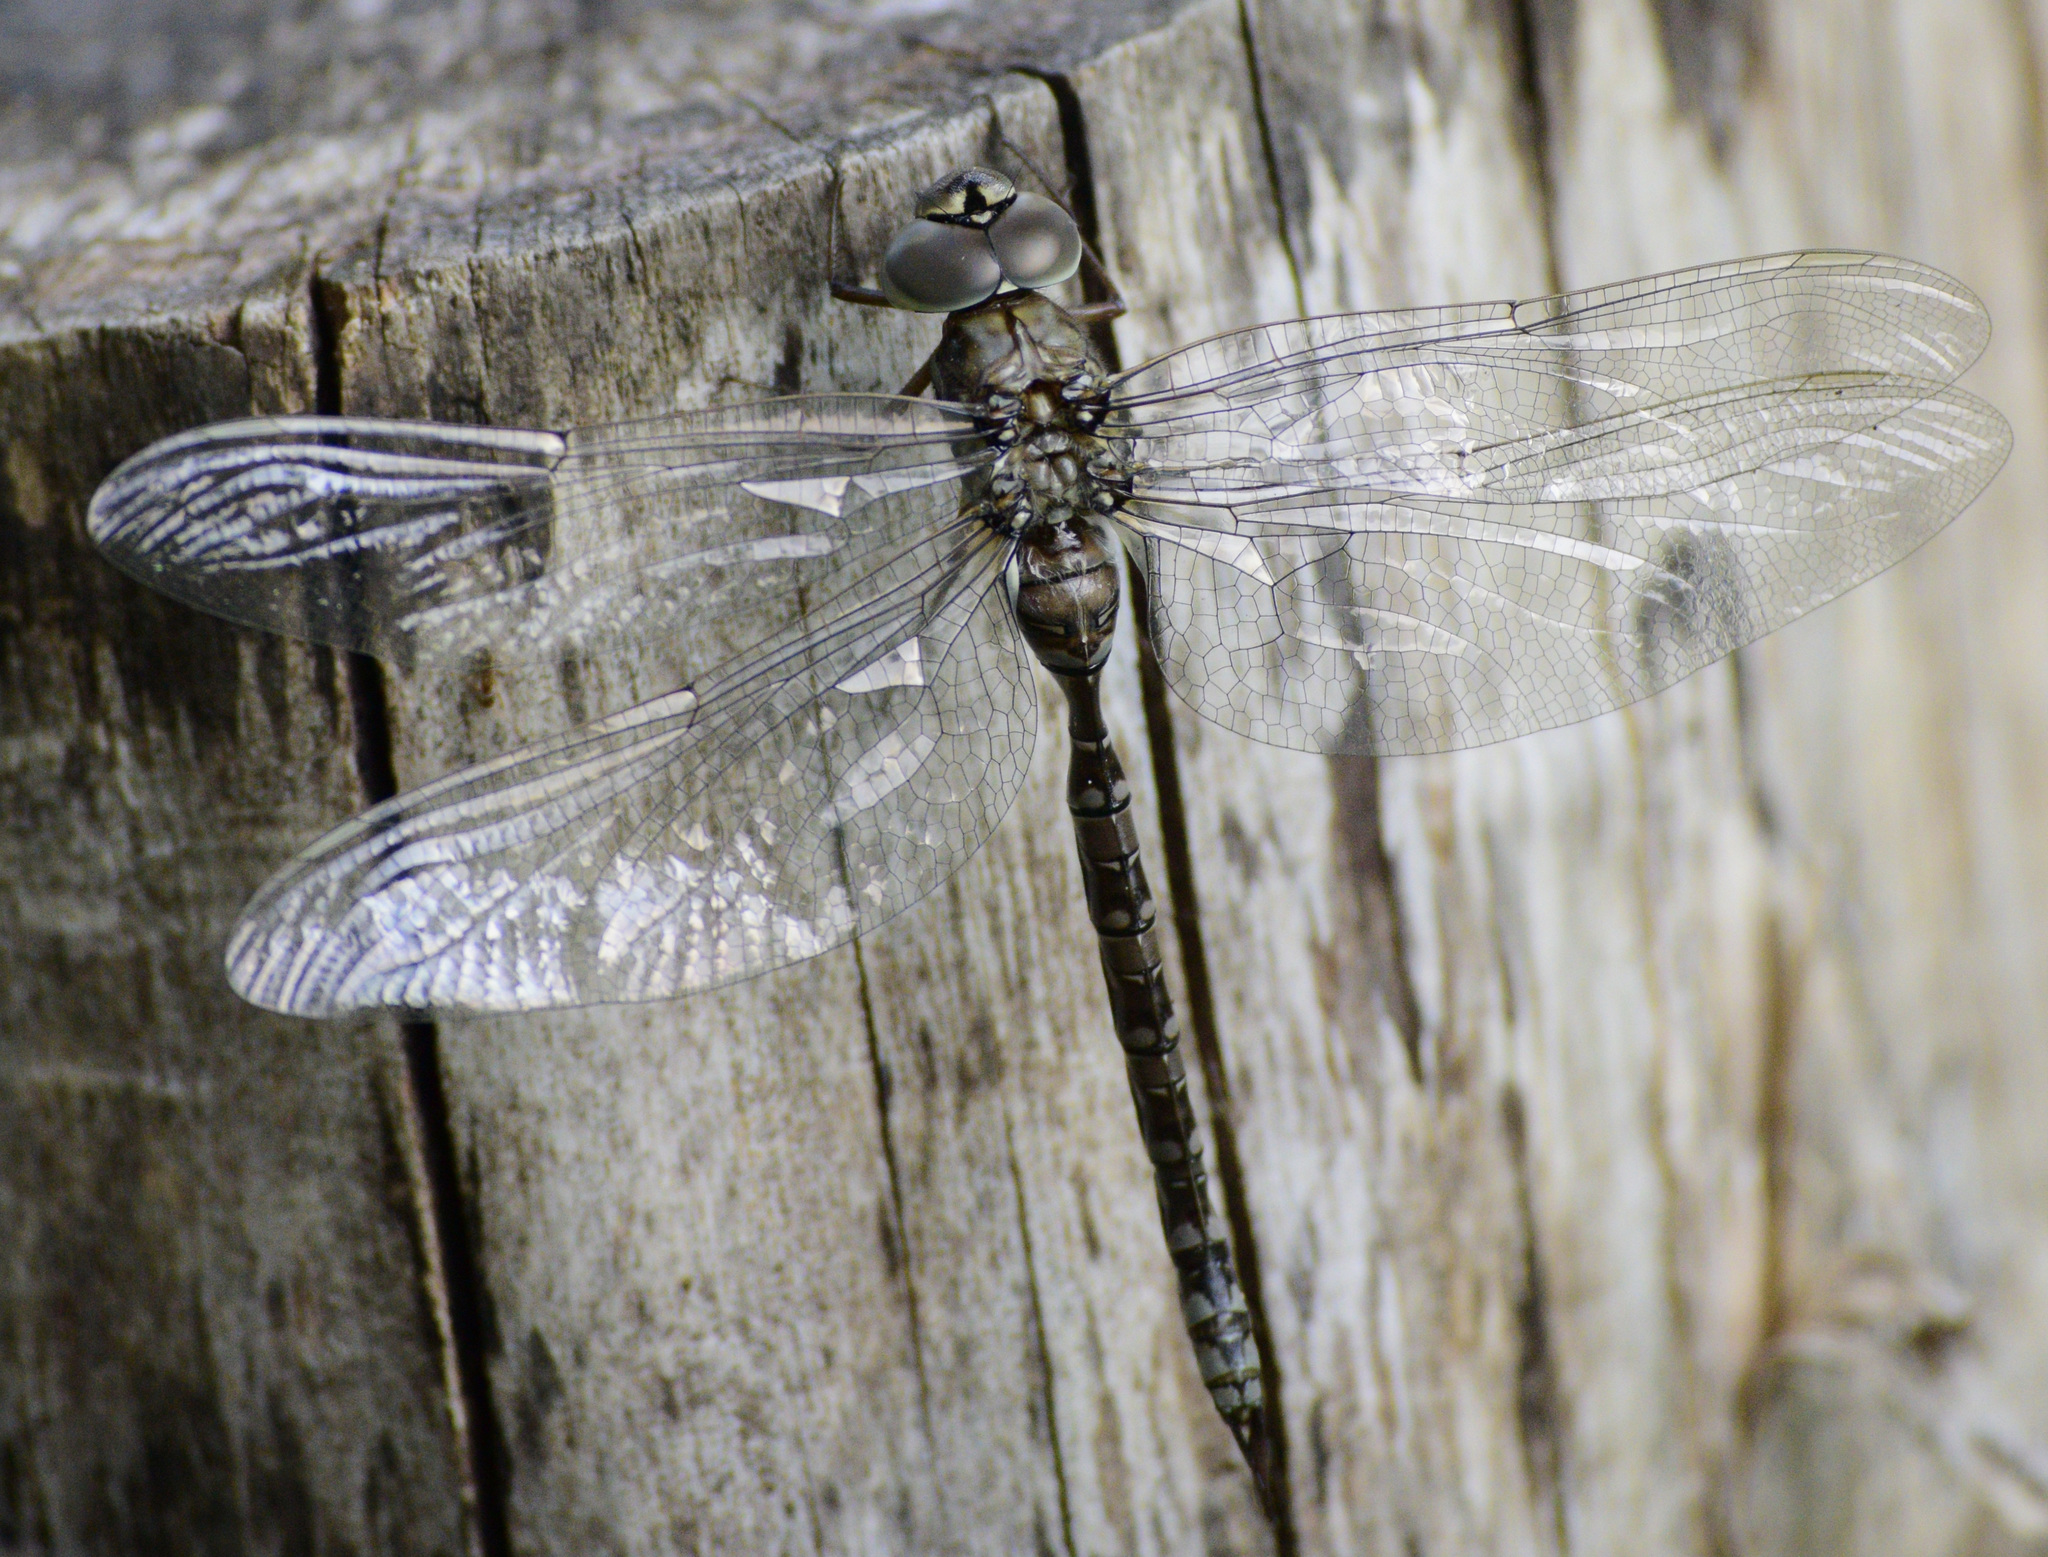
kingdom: Animalia
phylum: Arthropoda
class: Insecta
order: Odonata
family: Aeshnidae
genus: Aeshna
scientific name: Aeshna canadensis
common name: Canada darner
